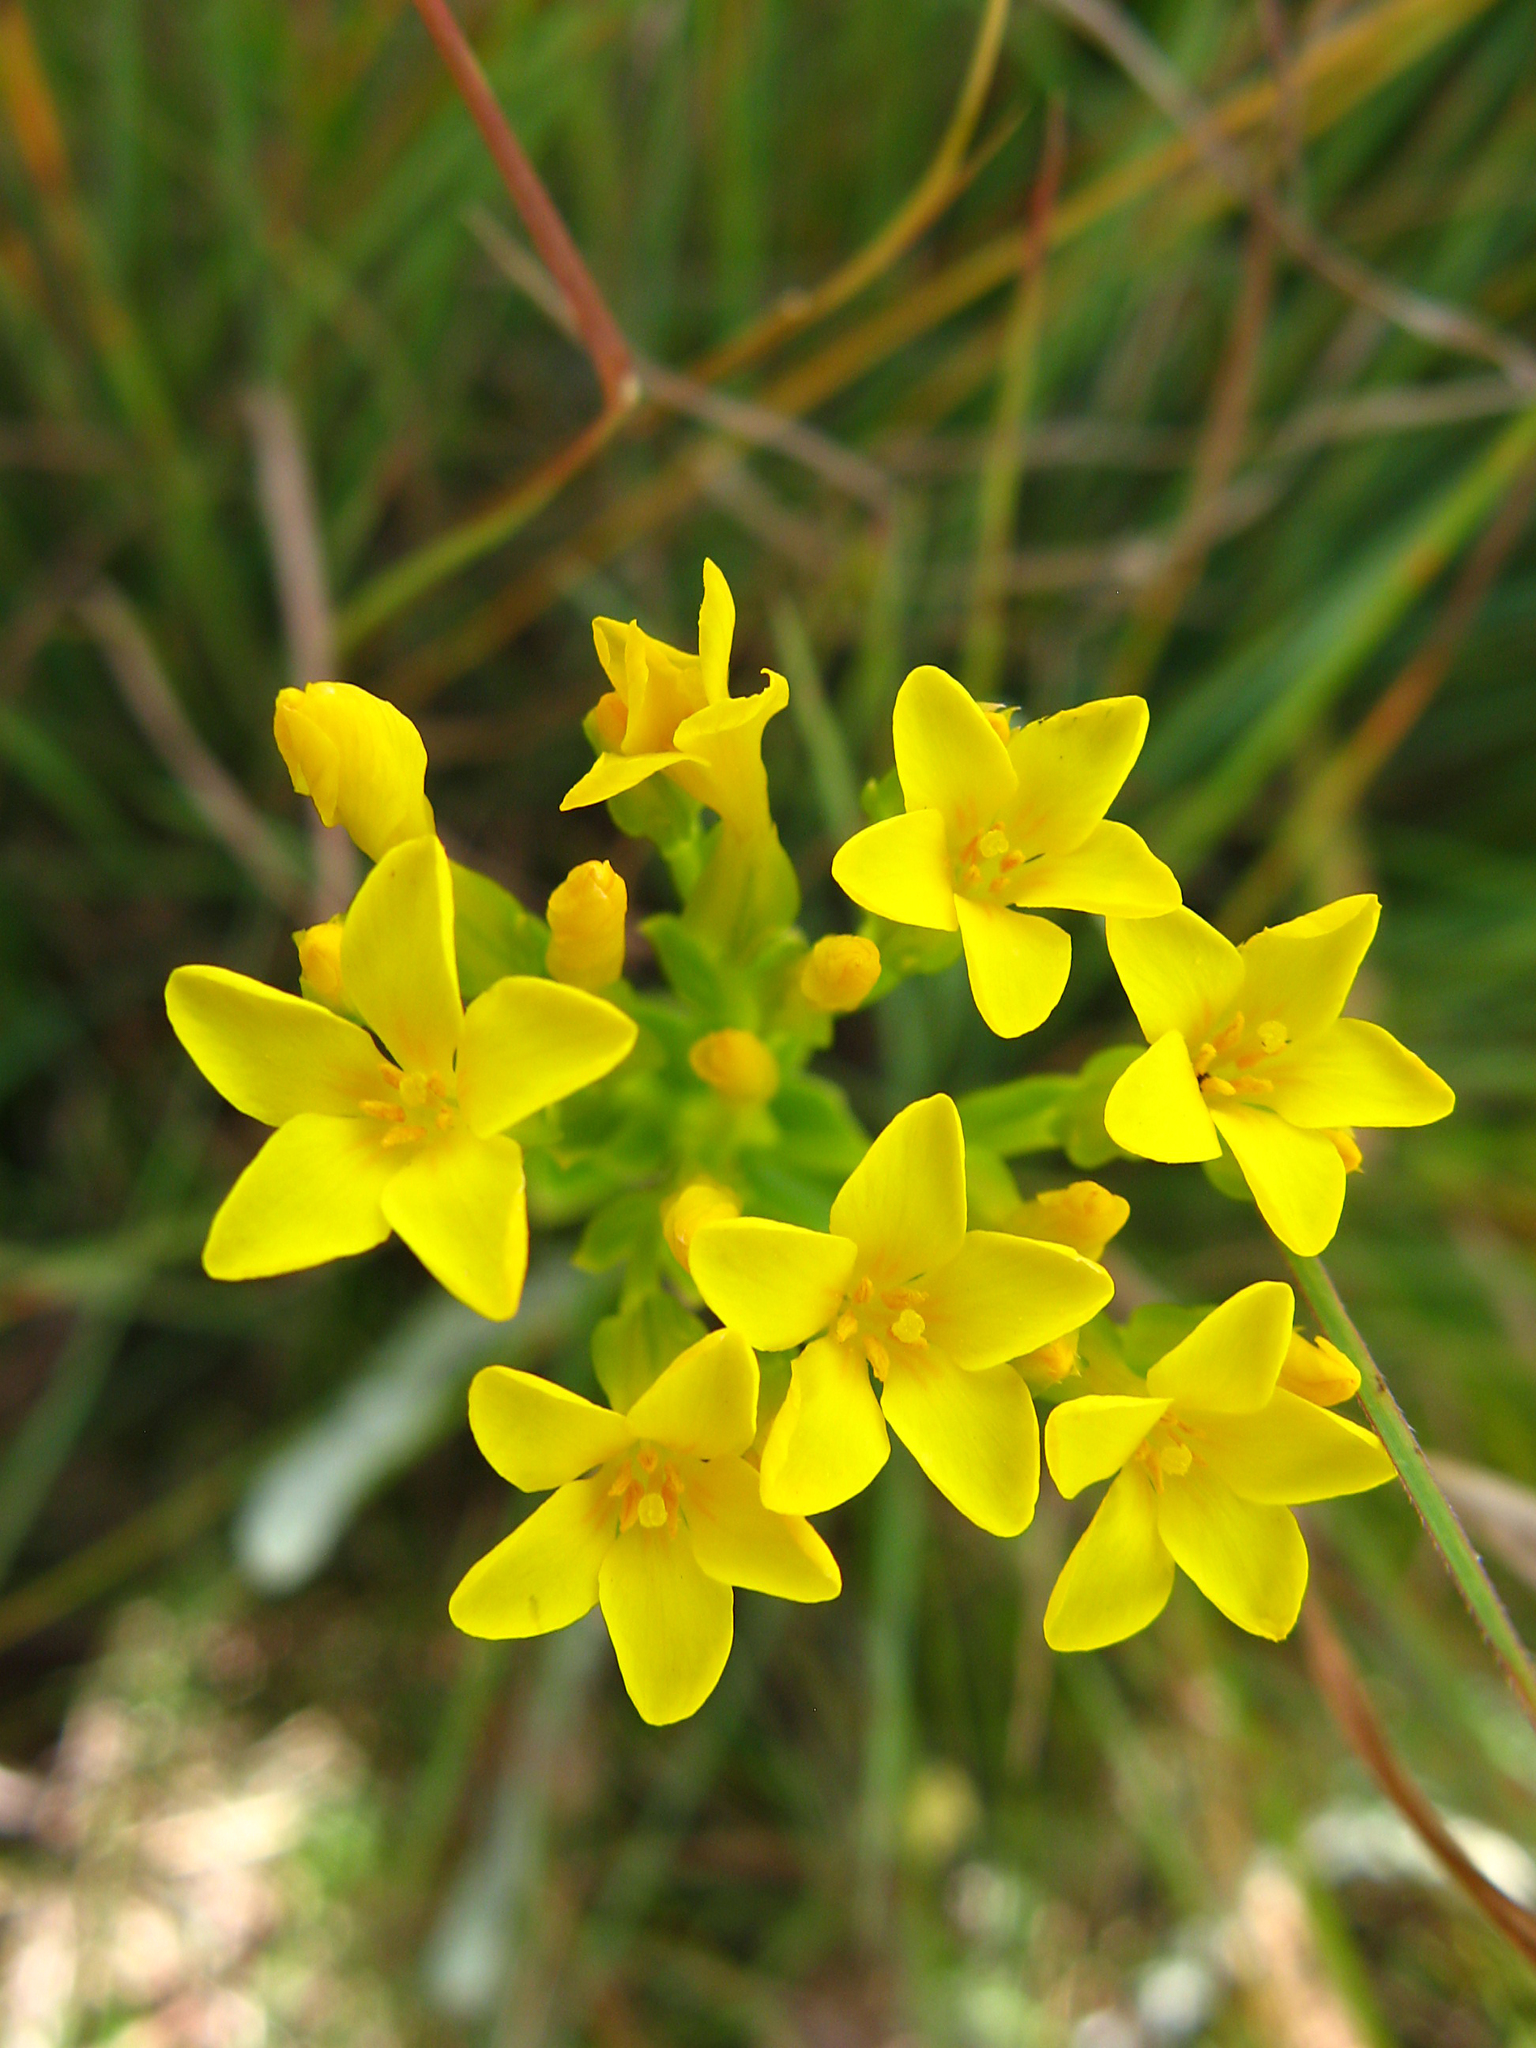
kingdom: Plantae
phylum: Tracheophyta
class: Magnoliopsida
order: Gentianales
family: Gentianaceae
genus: Sebaea
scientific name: Sebaea natalensis
